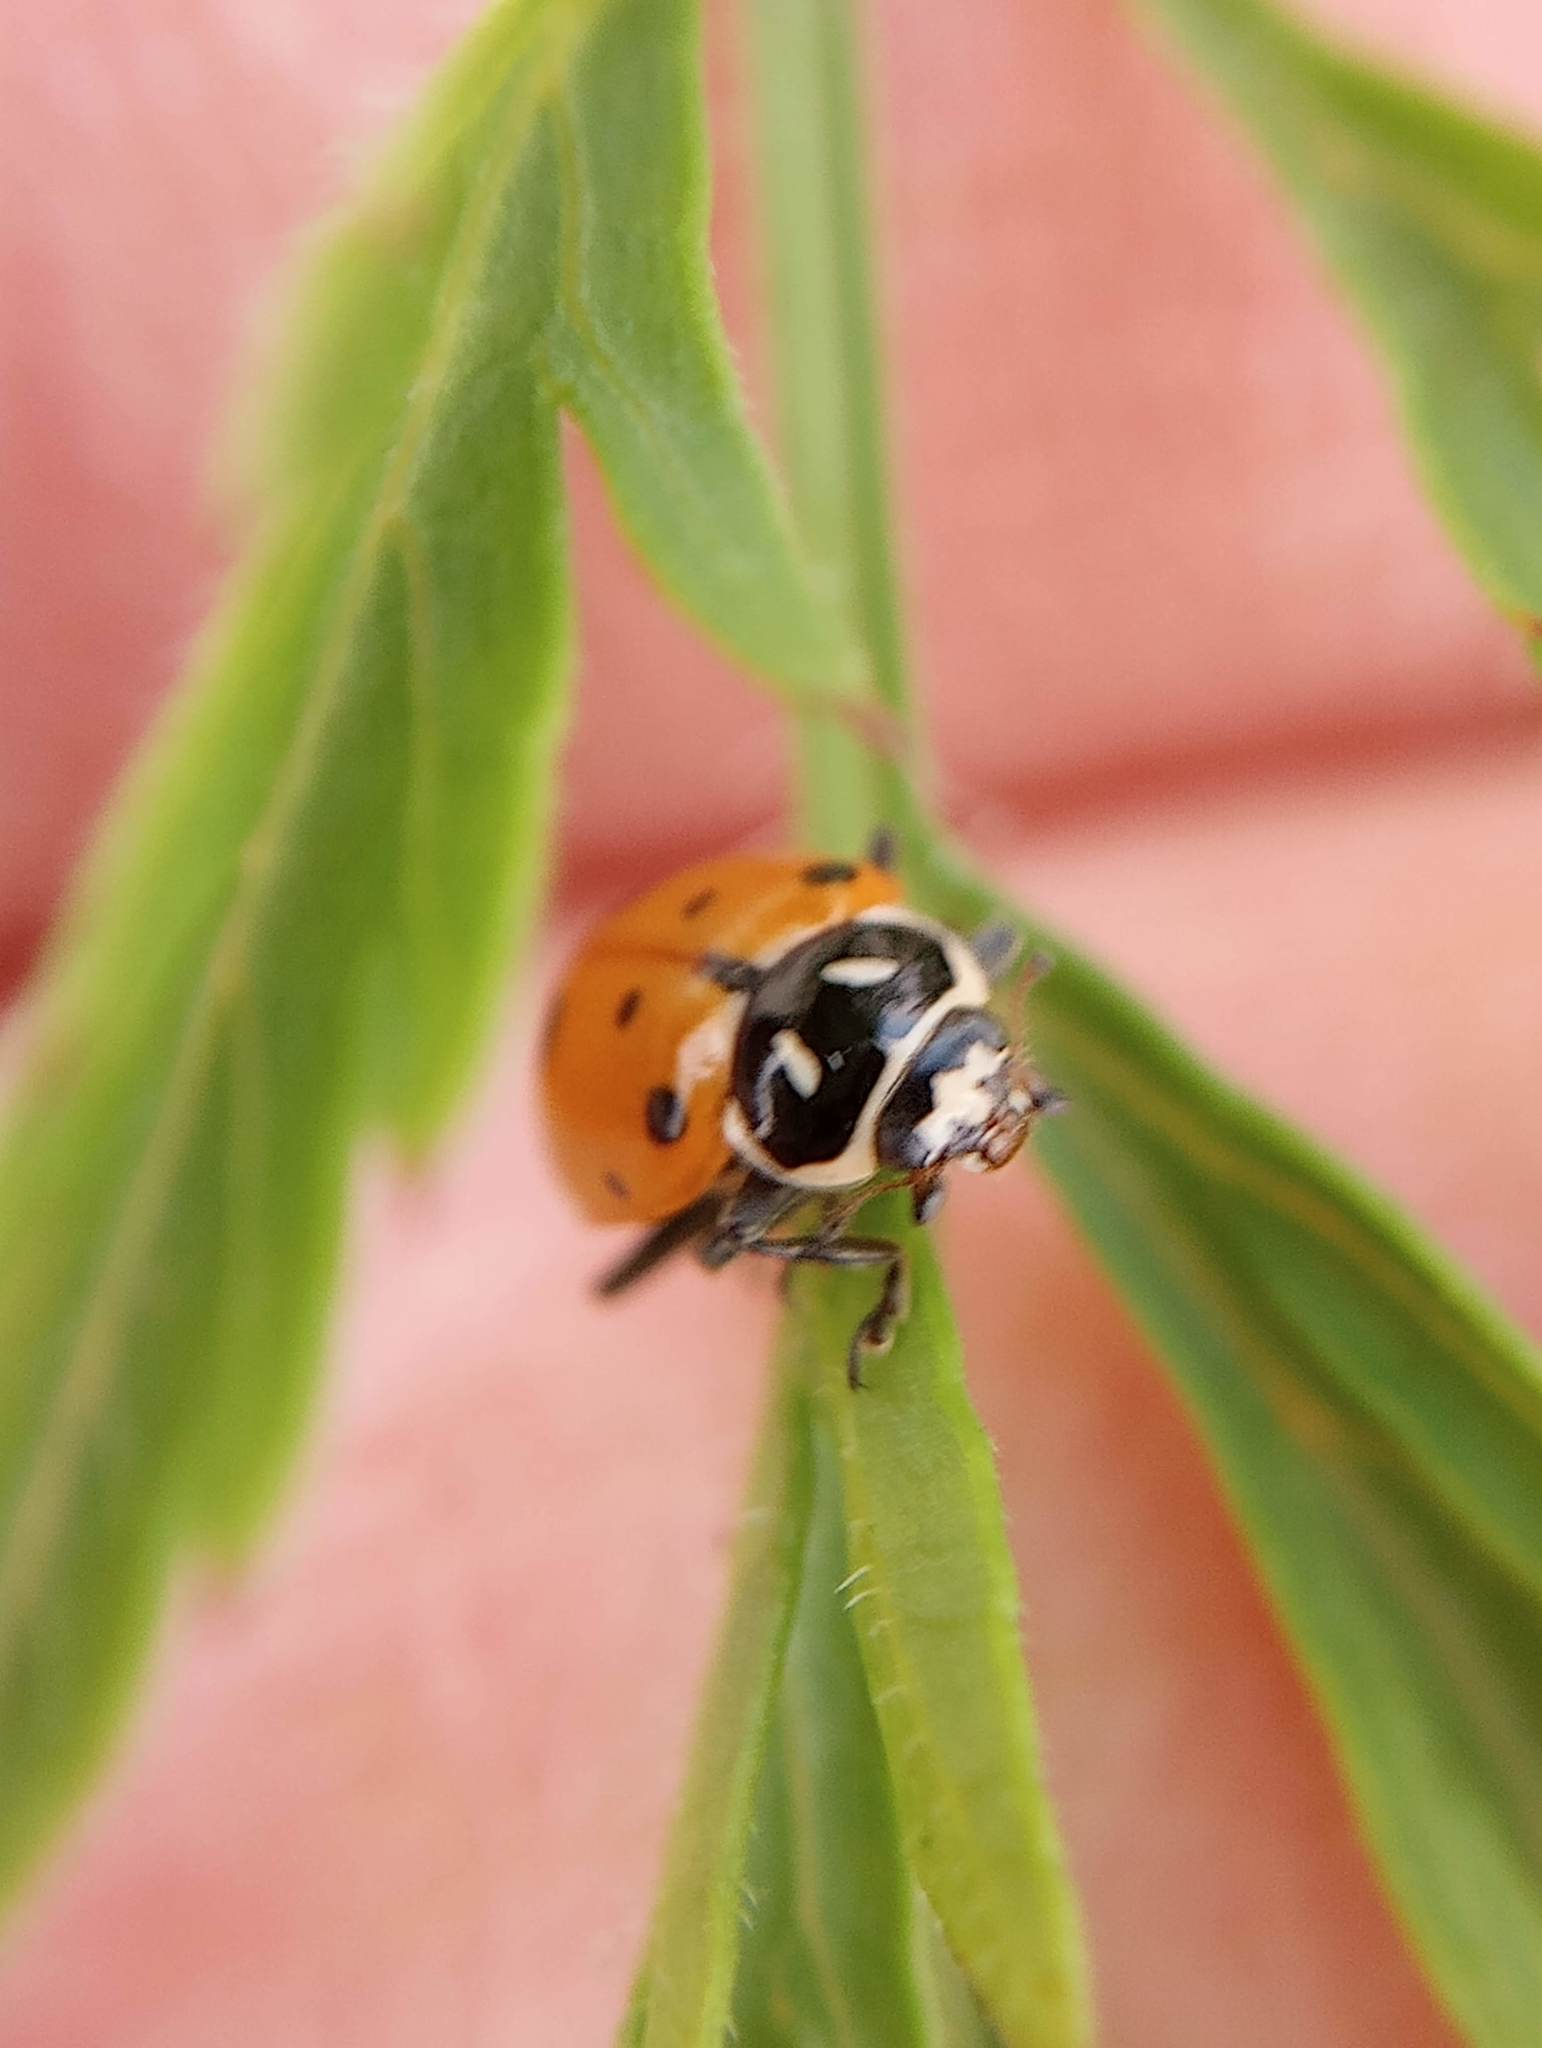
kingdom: Animalia
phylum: Arthropoda
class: Insecta
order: Coleoptera
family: Coccinellidae
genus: Hippodamia
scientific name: Hippodamia convergens
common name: Convergent lady beetle
